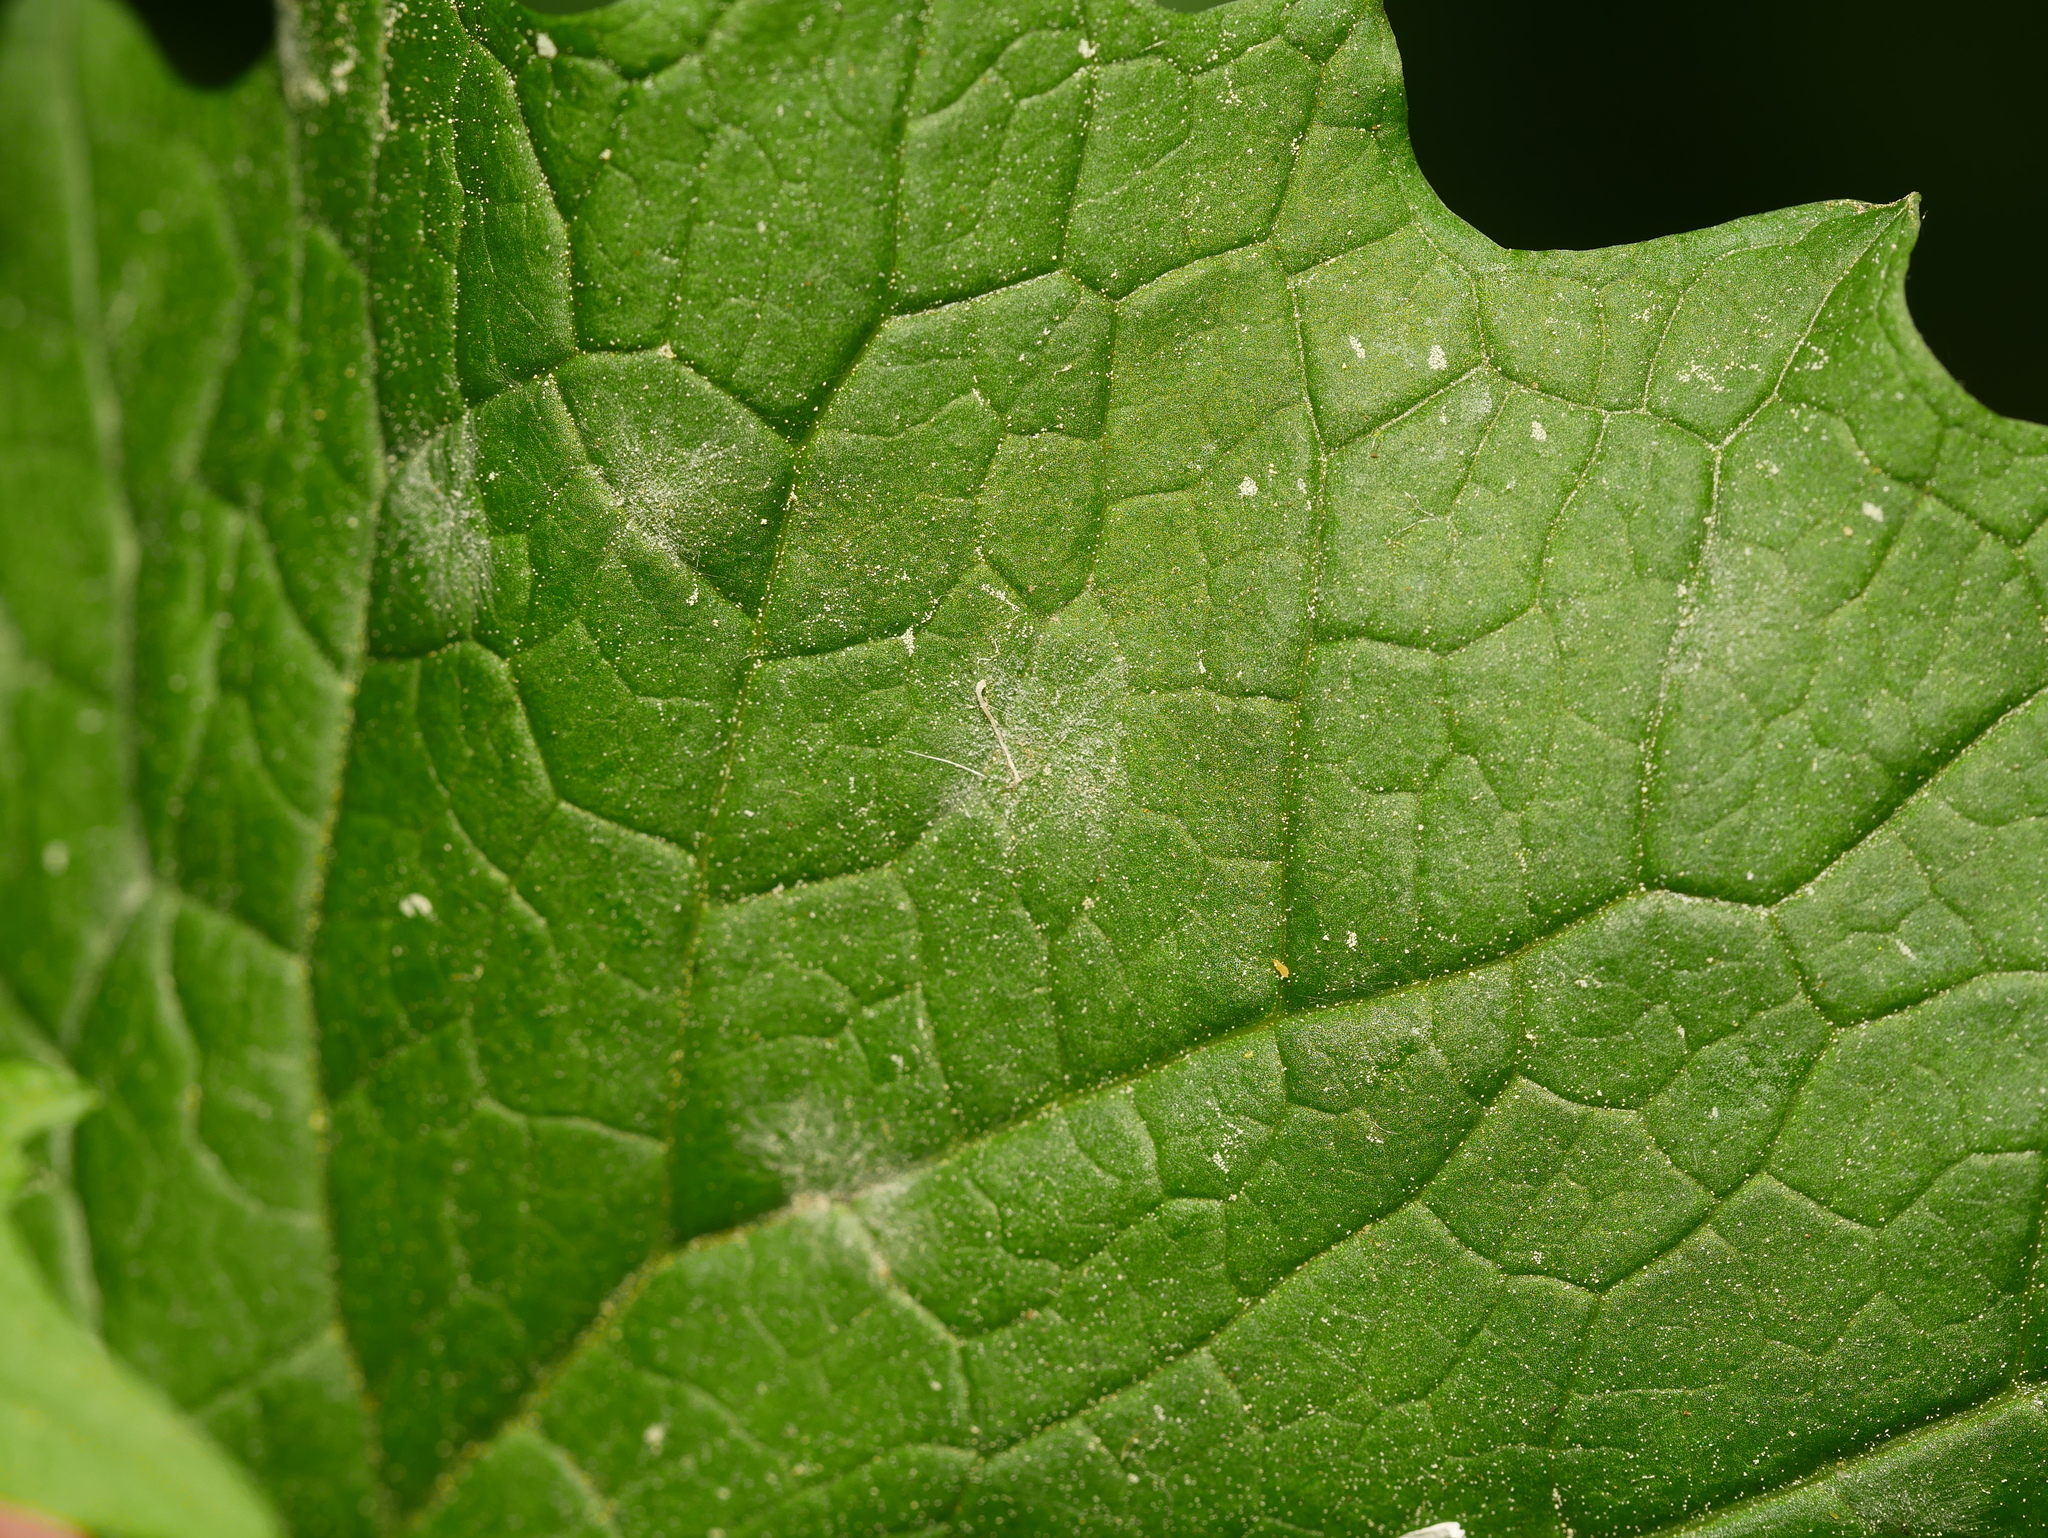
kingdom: Fungi
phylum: Ascomycota
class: Leotiomycetes
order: Helotiales
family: Erysiphaceae
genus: Erysiphe
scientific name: Erysiphe cruciferarum
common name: Brassica powdery mildew
